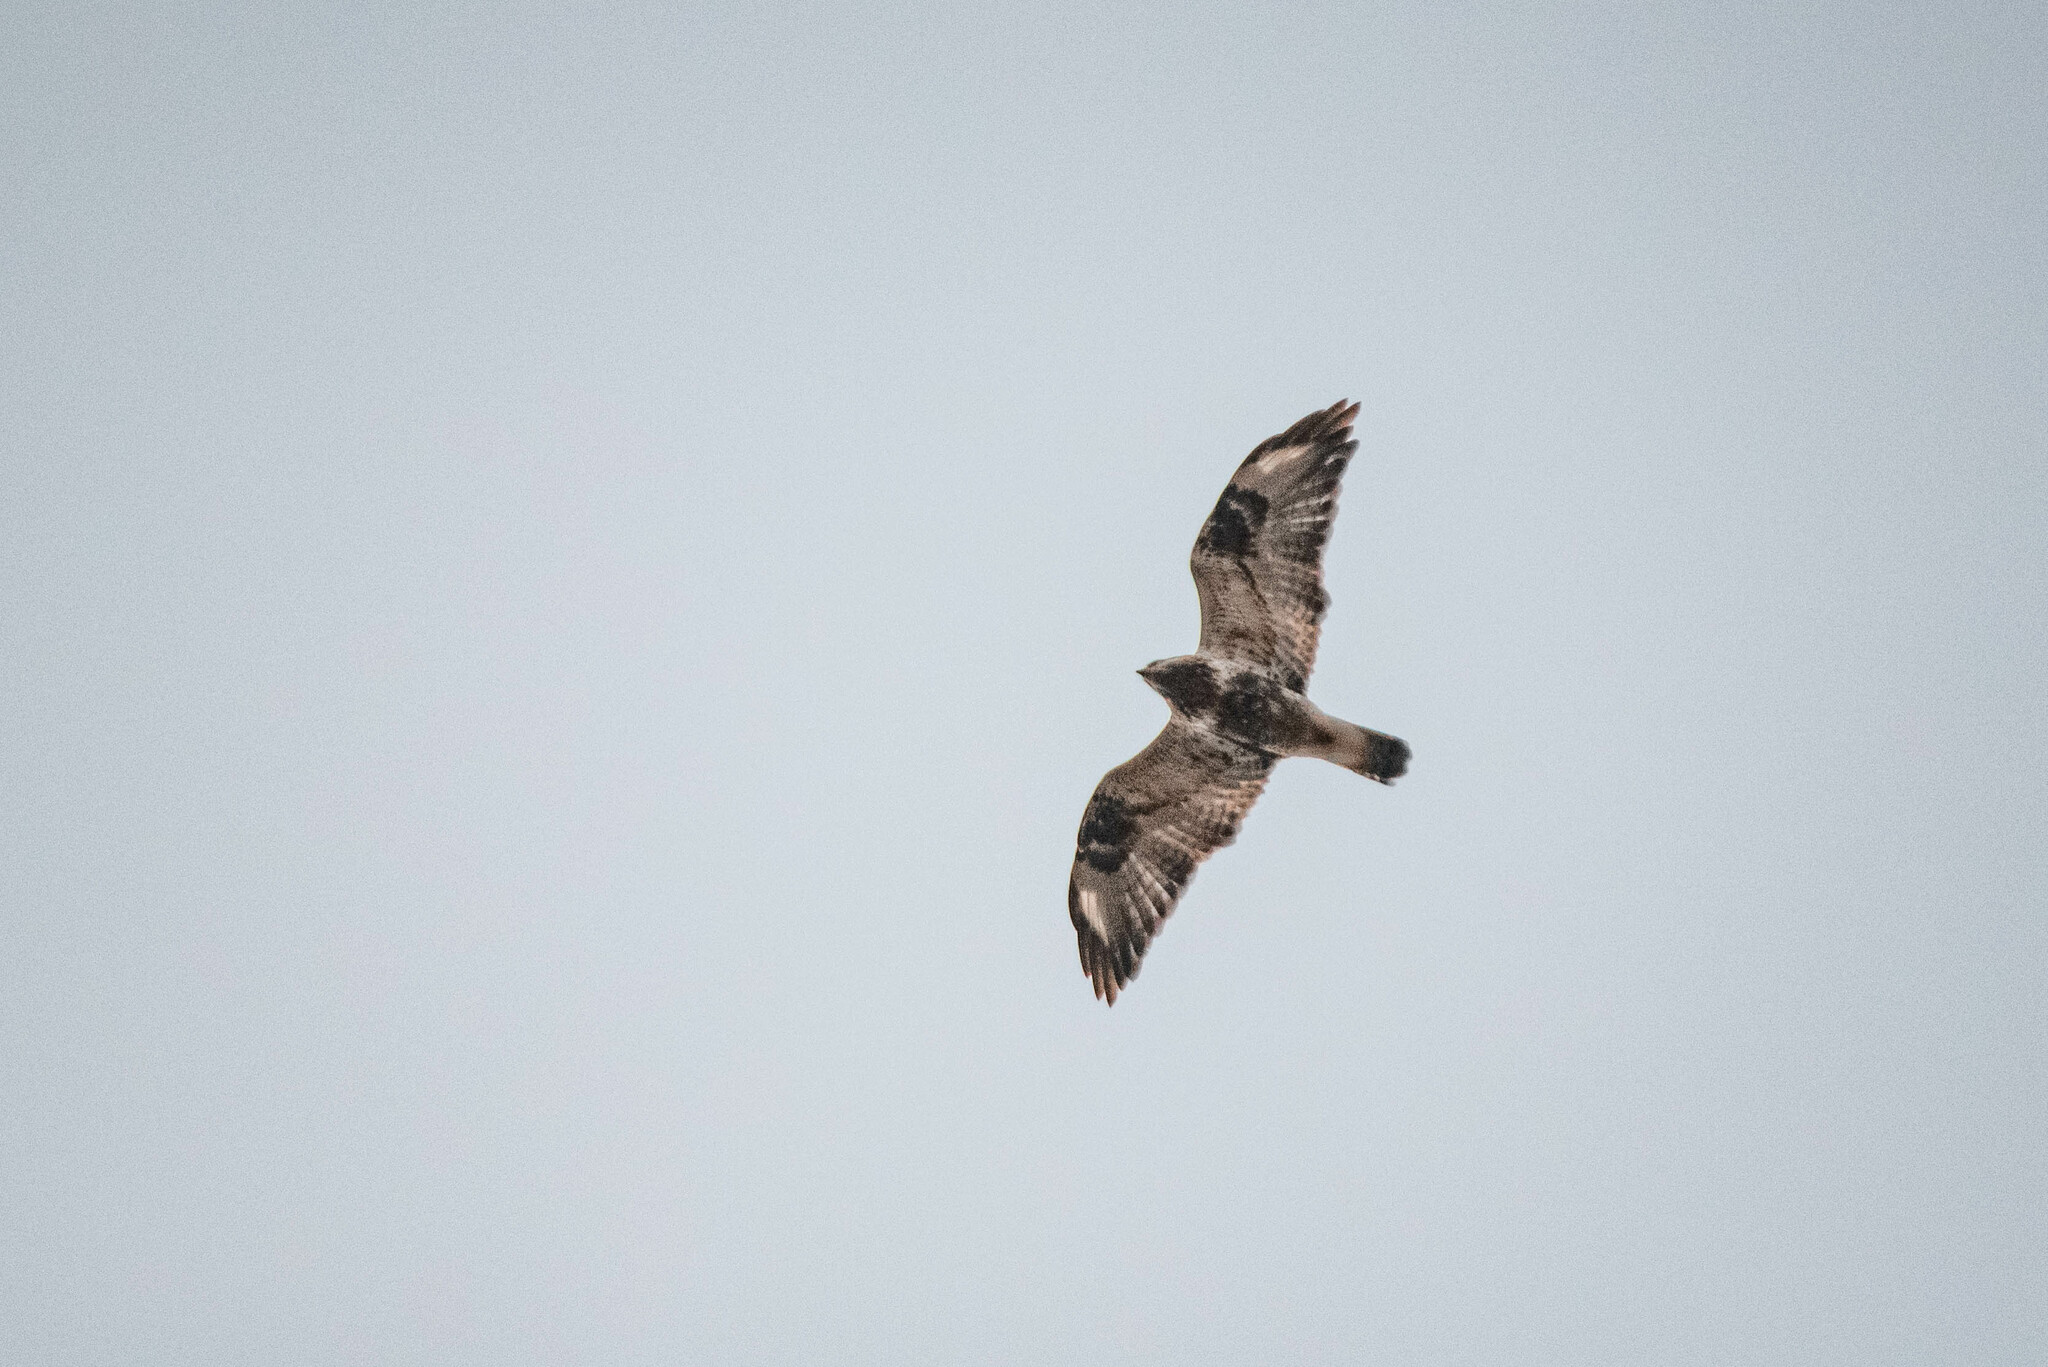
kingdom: Animalia
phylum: Chordata
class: Aves
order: Accipitriformes
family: Accipitridae
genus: Buteo
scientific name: Buteo lagopus
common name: Rough-legged buzzard
